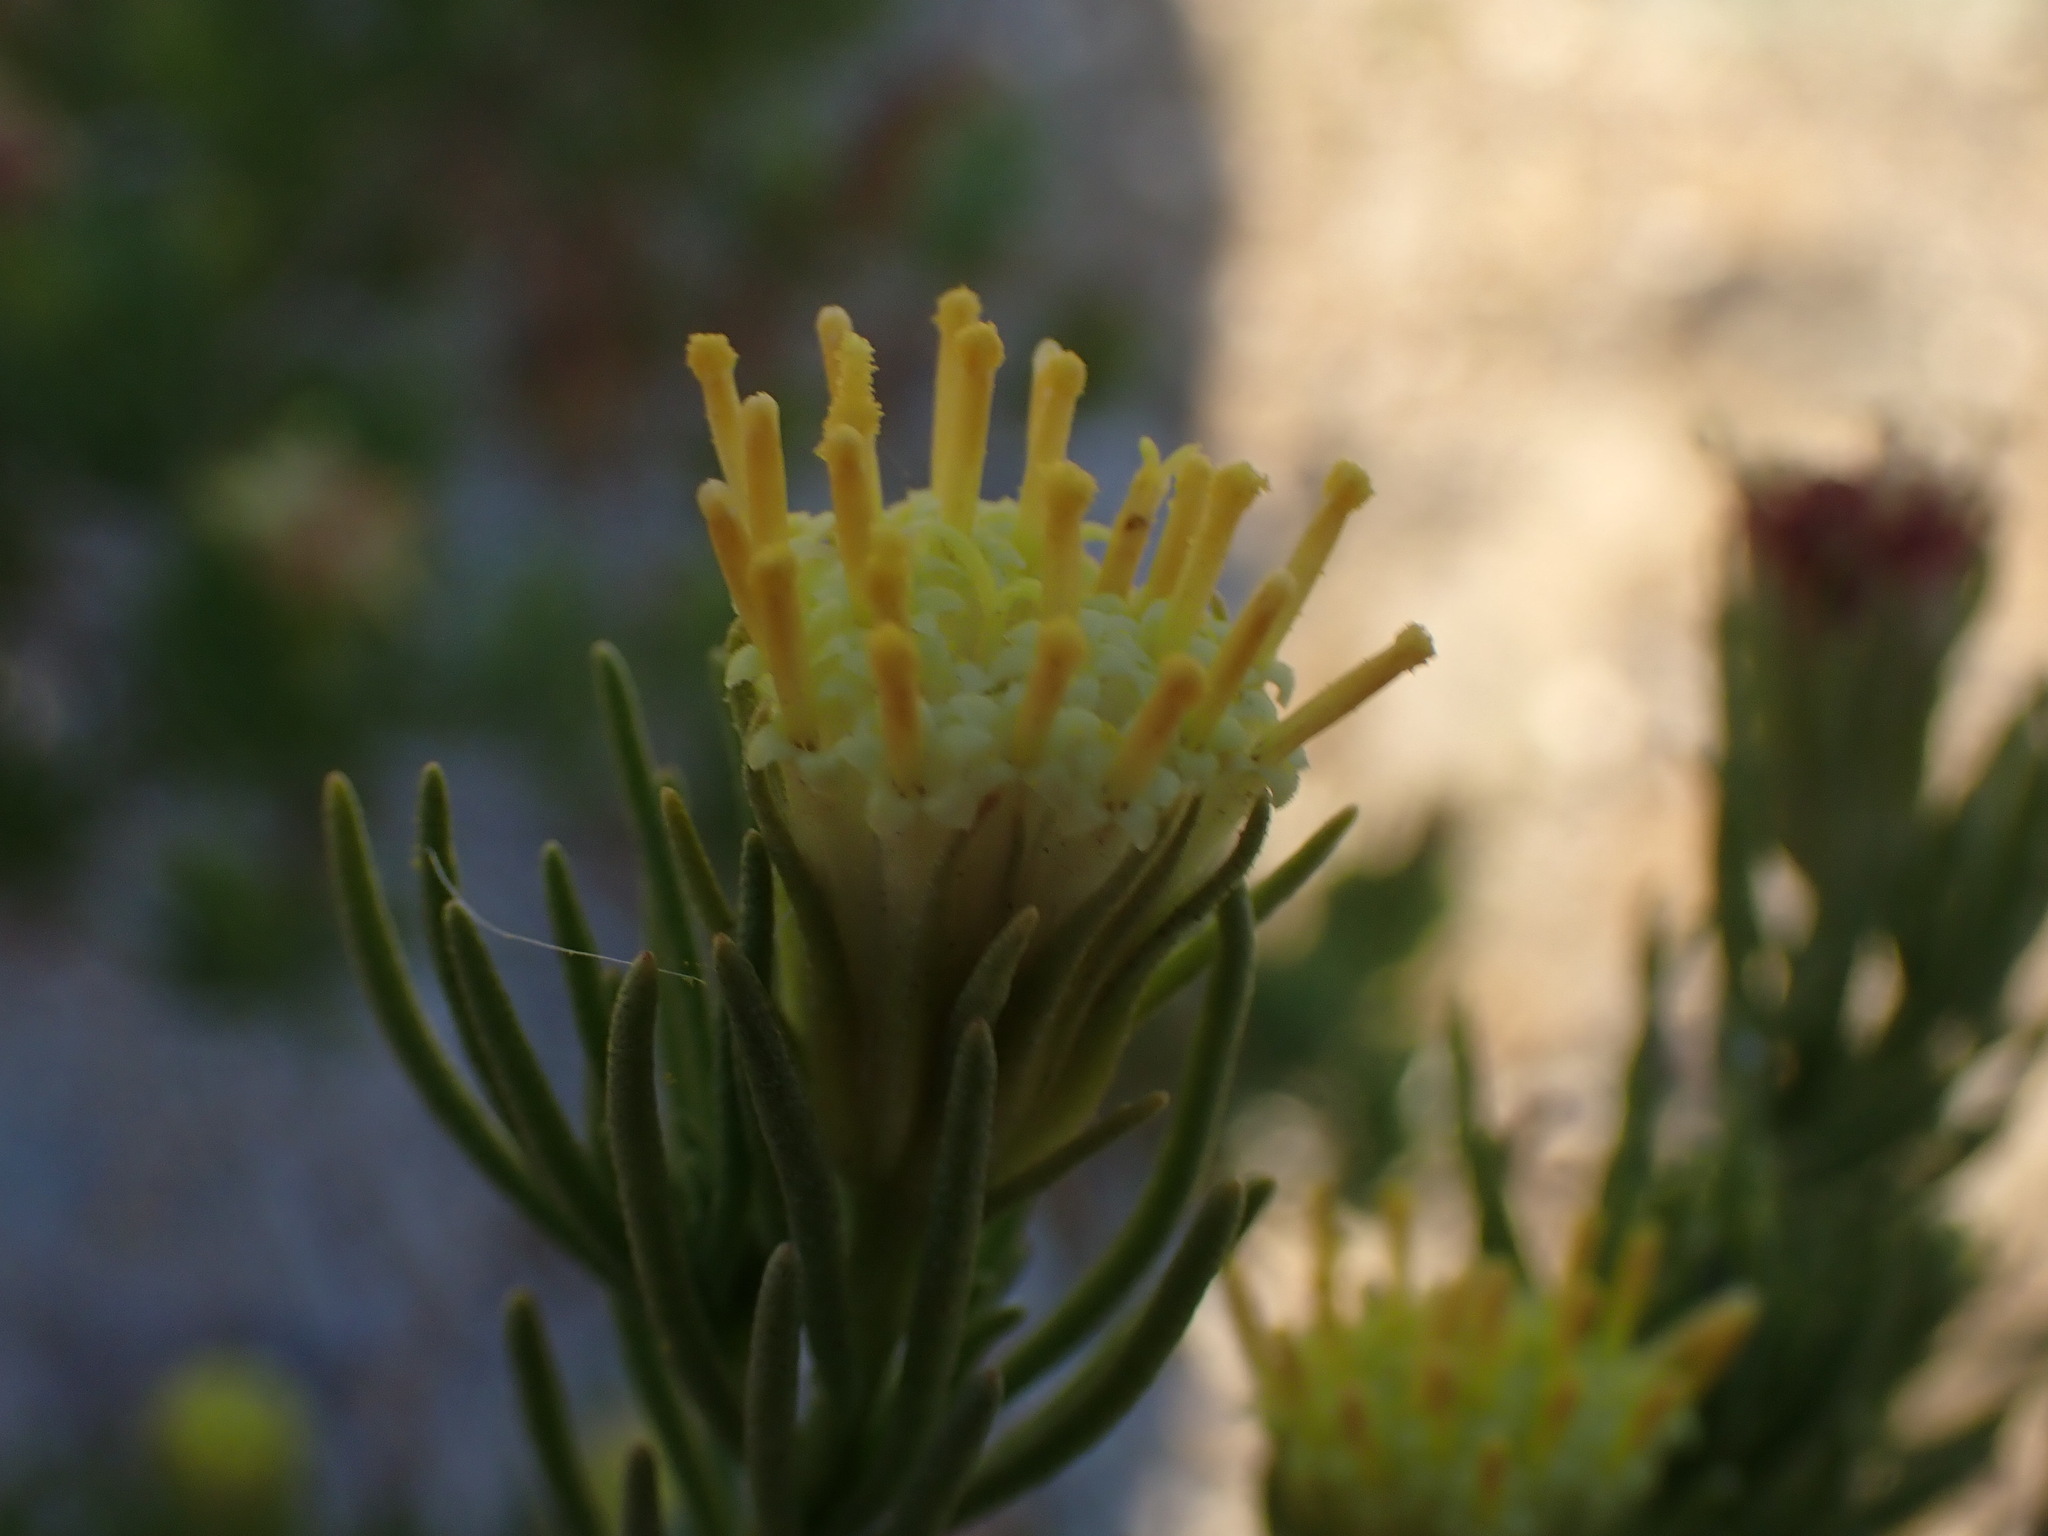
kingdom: Plantae
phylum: Tracheophyta
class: Magnoliopsida
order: Asterales
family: Asteraceae
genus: Peucephyllum
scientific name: Peucephyllum schottii
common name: Pygmy-cedar
